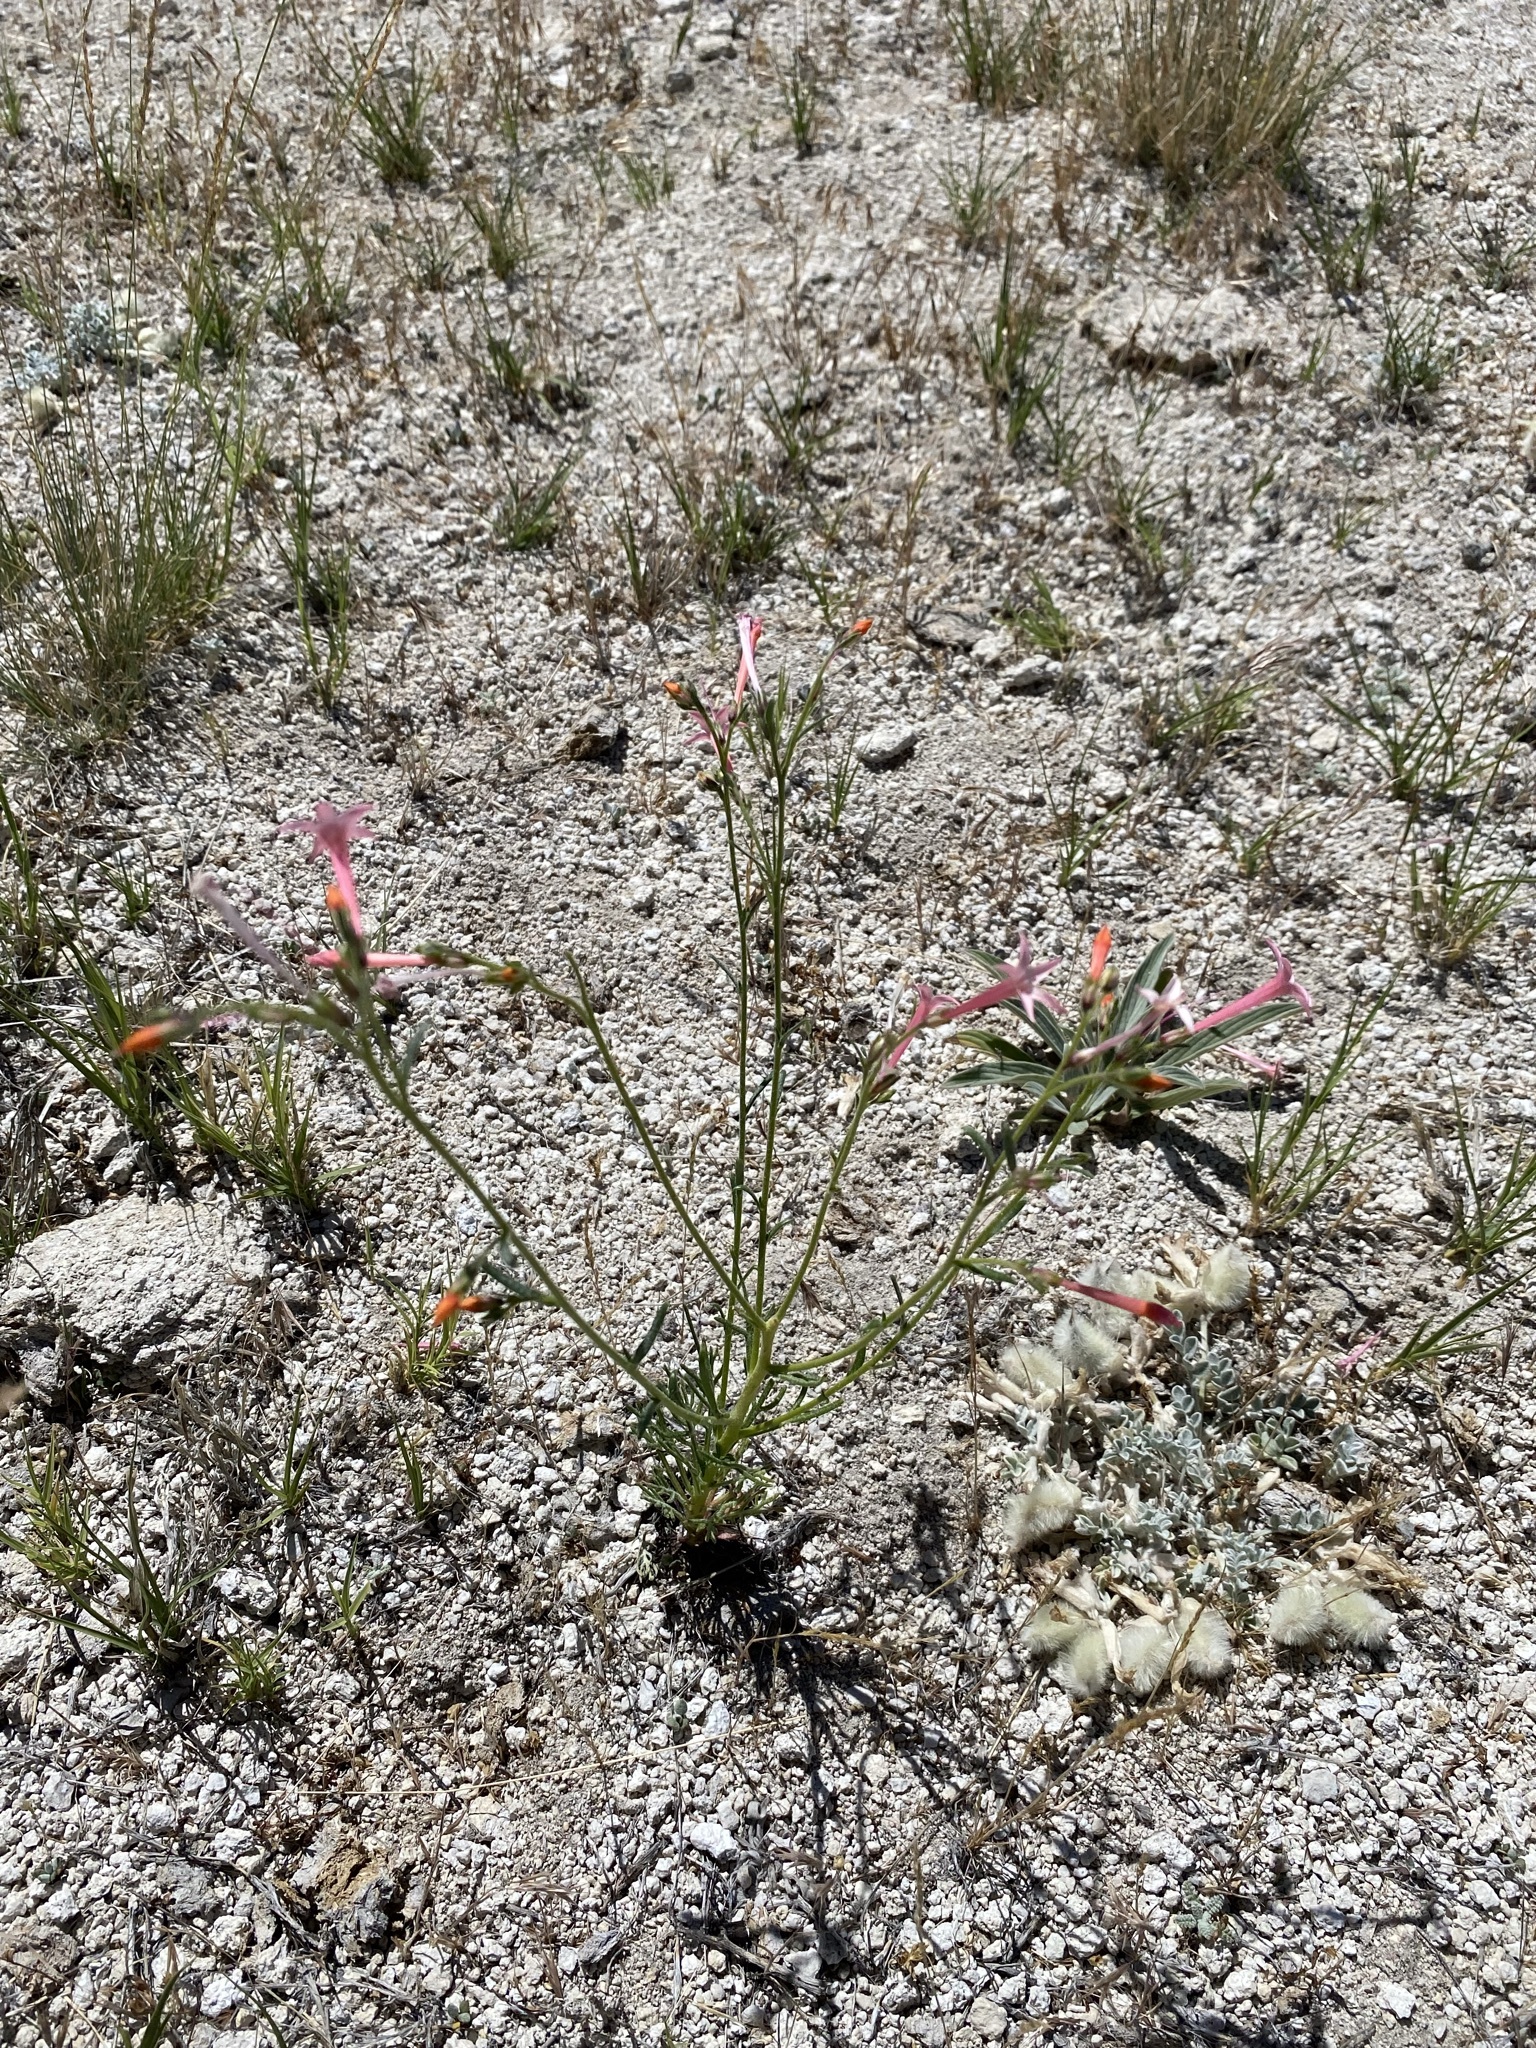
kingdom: Plantae
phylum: Tracheophyta
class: Magnoliopsida
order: Ericales
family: Polemoniaceae
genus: Ipomopsis
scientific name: Ipomopsis tenuituba
